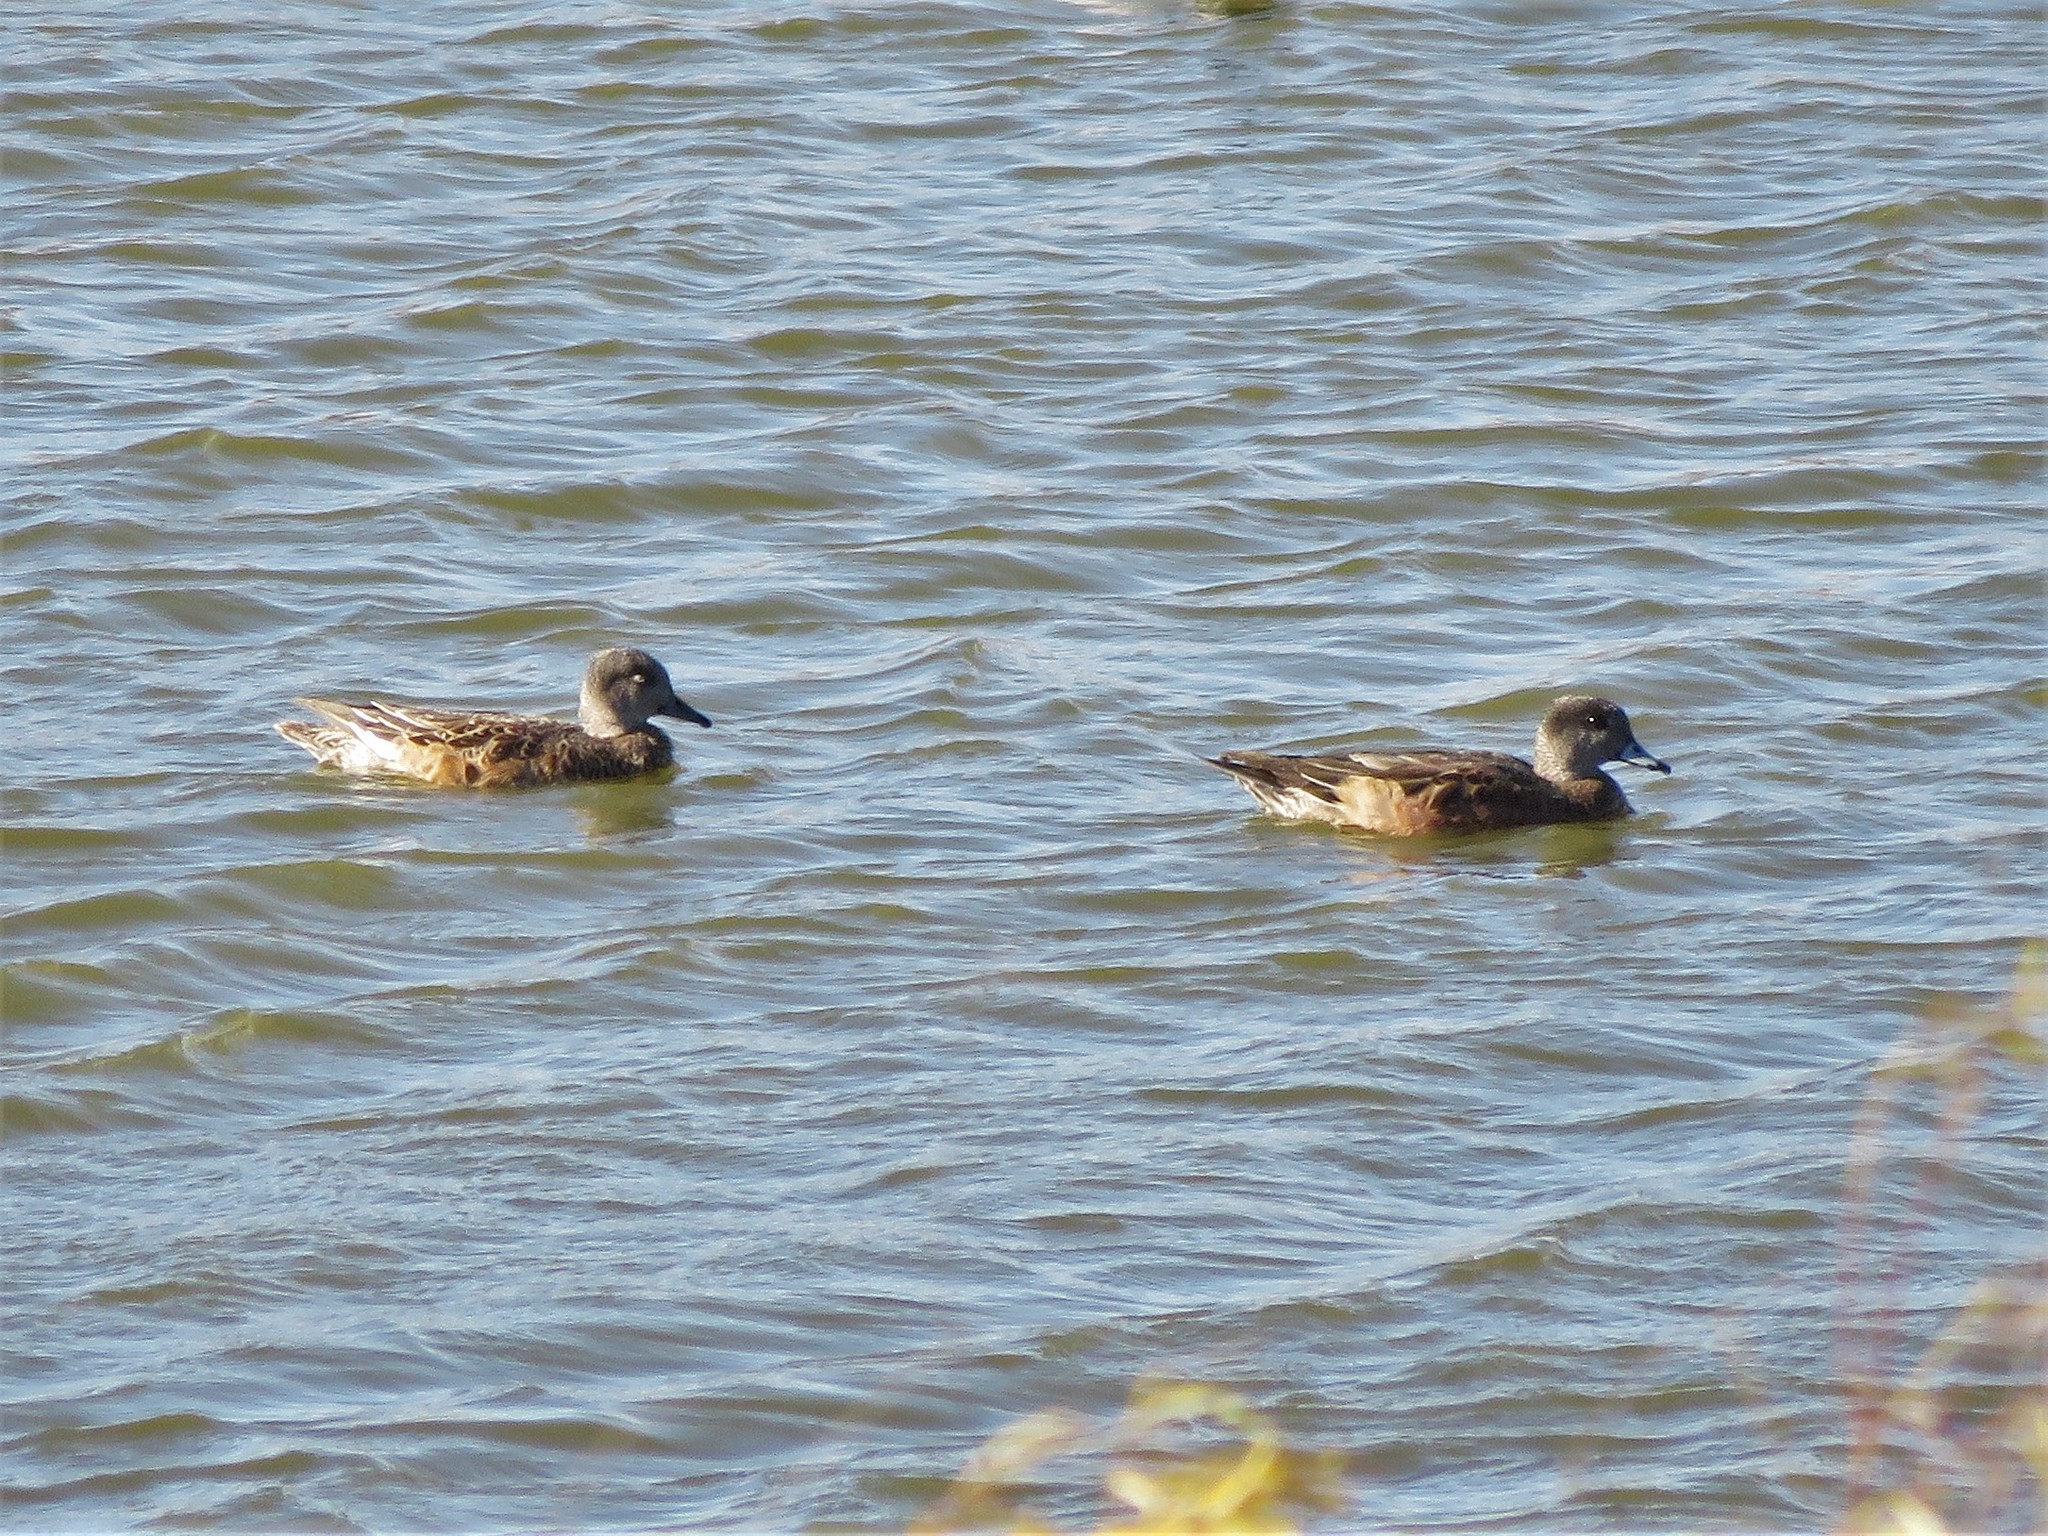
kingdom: Animalia
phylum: Chordata
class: Aves
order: Anseriformes
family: Anatidae
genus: Mareca
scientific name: Mareca americana
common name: American wigeon
